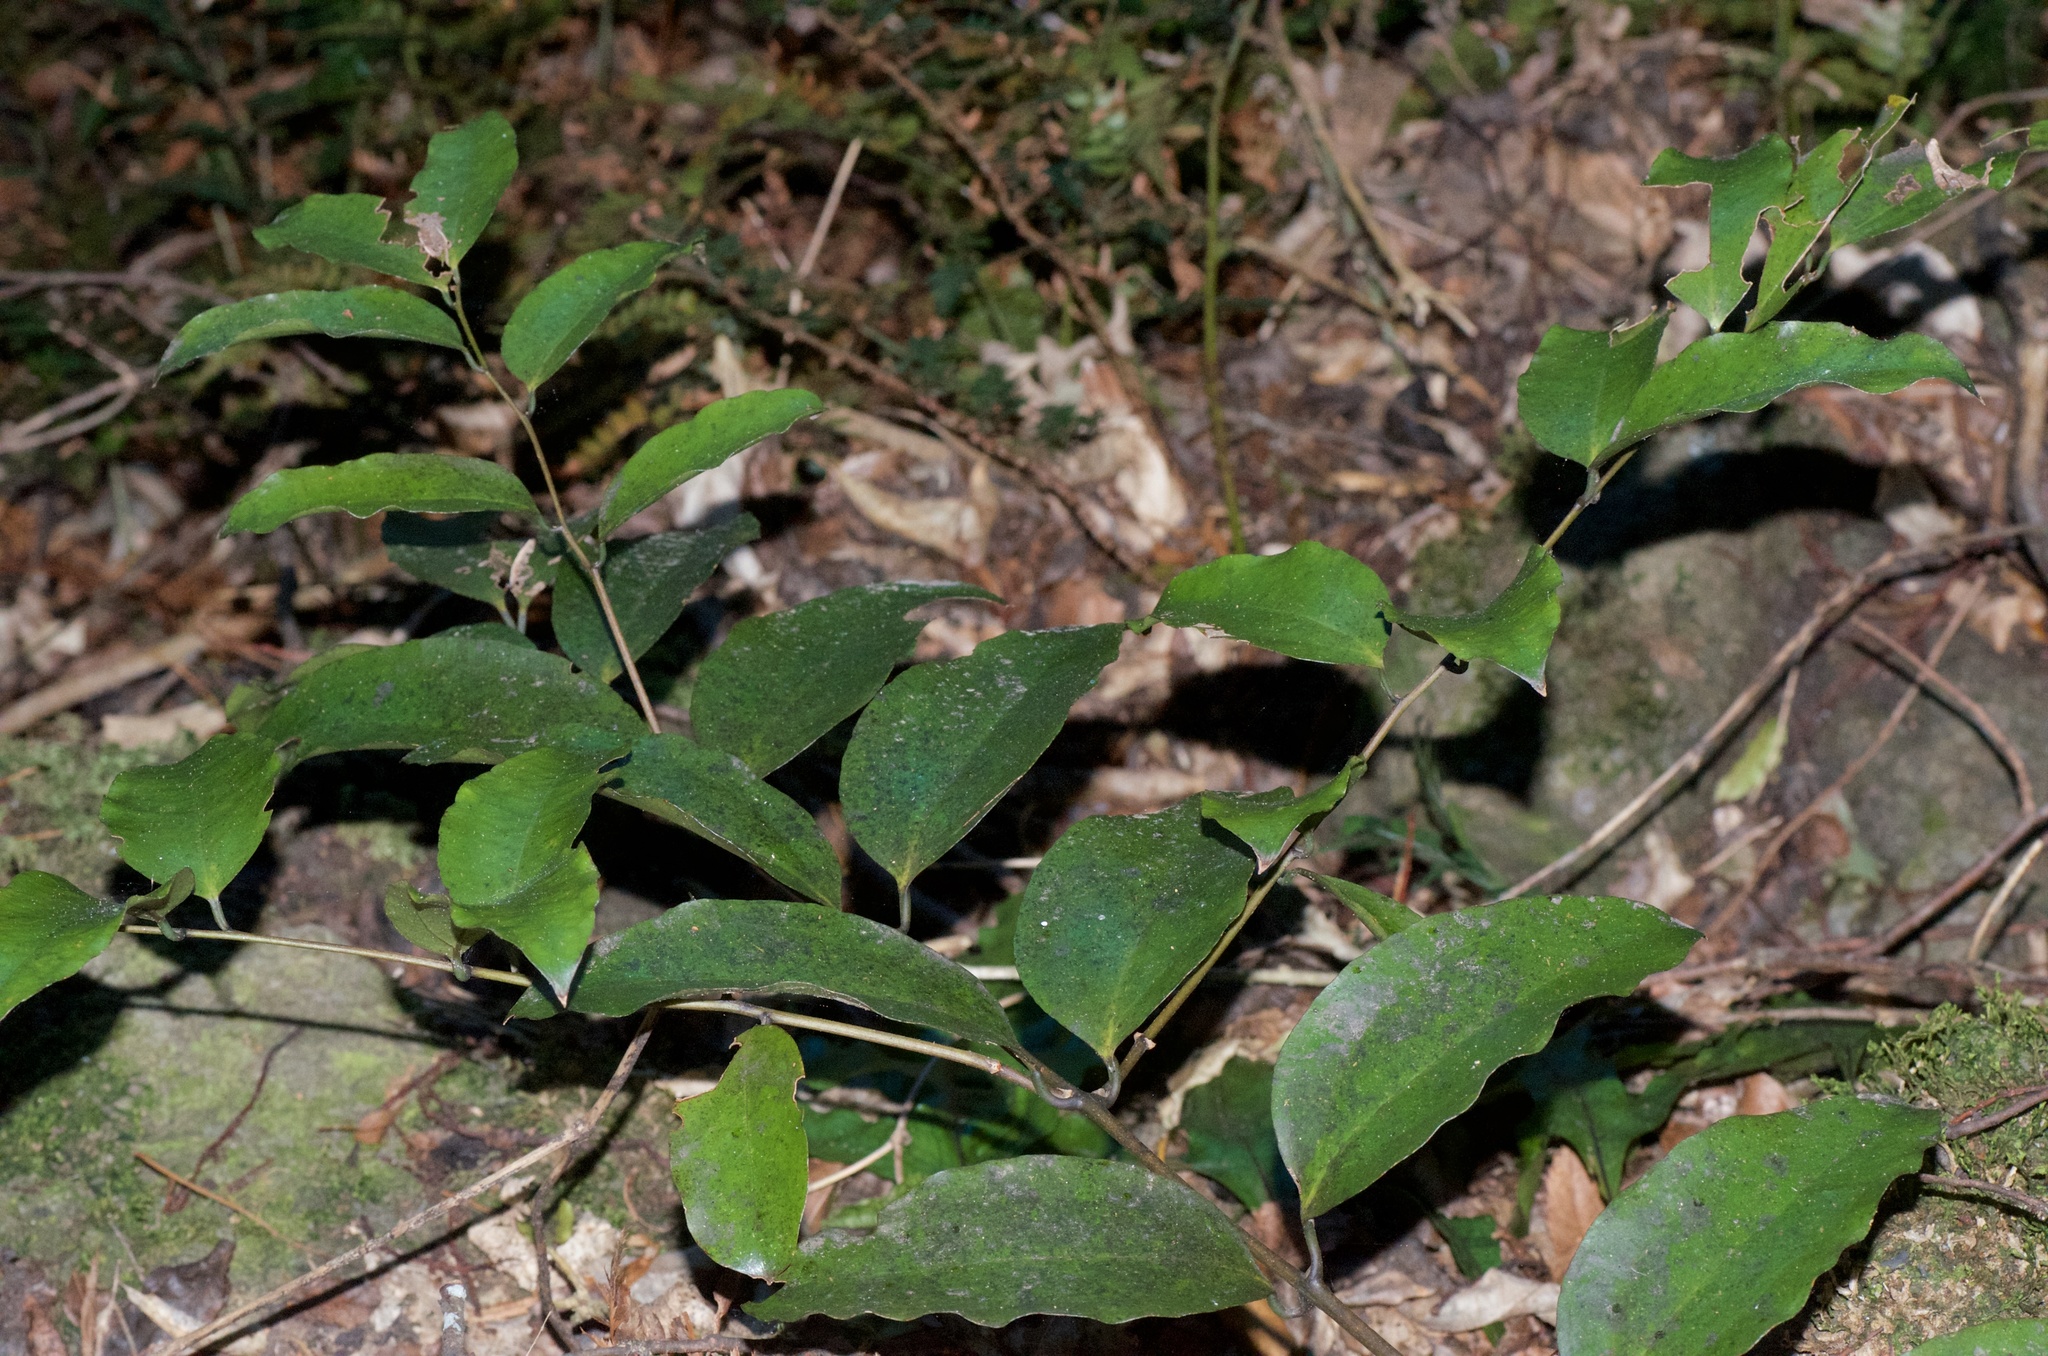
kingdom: Plantae
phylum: Tracheophyta
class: Liliopsida
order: Liliales
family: Ripogonaceae
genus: Ripogonum
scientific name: Ripogonum scandens
